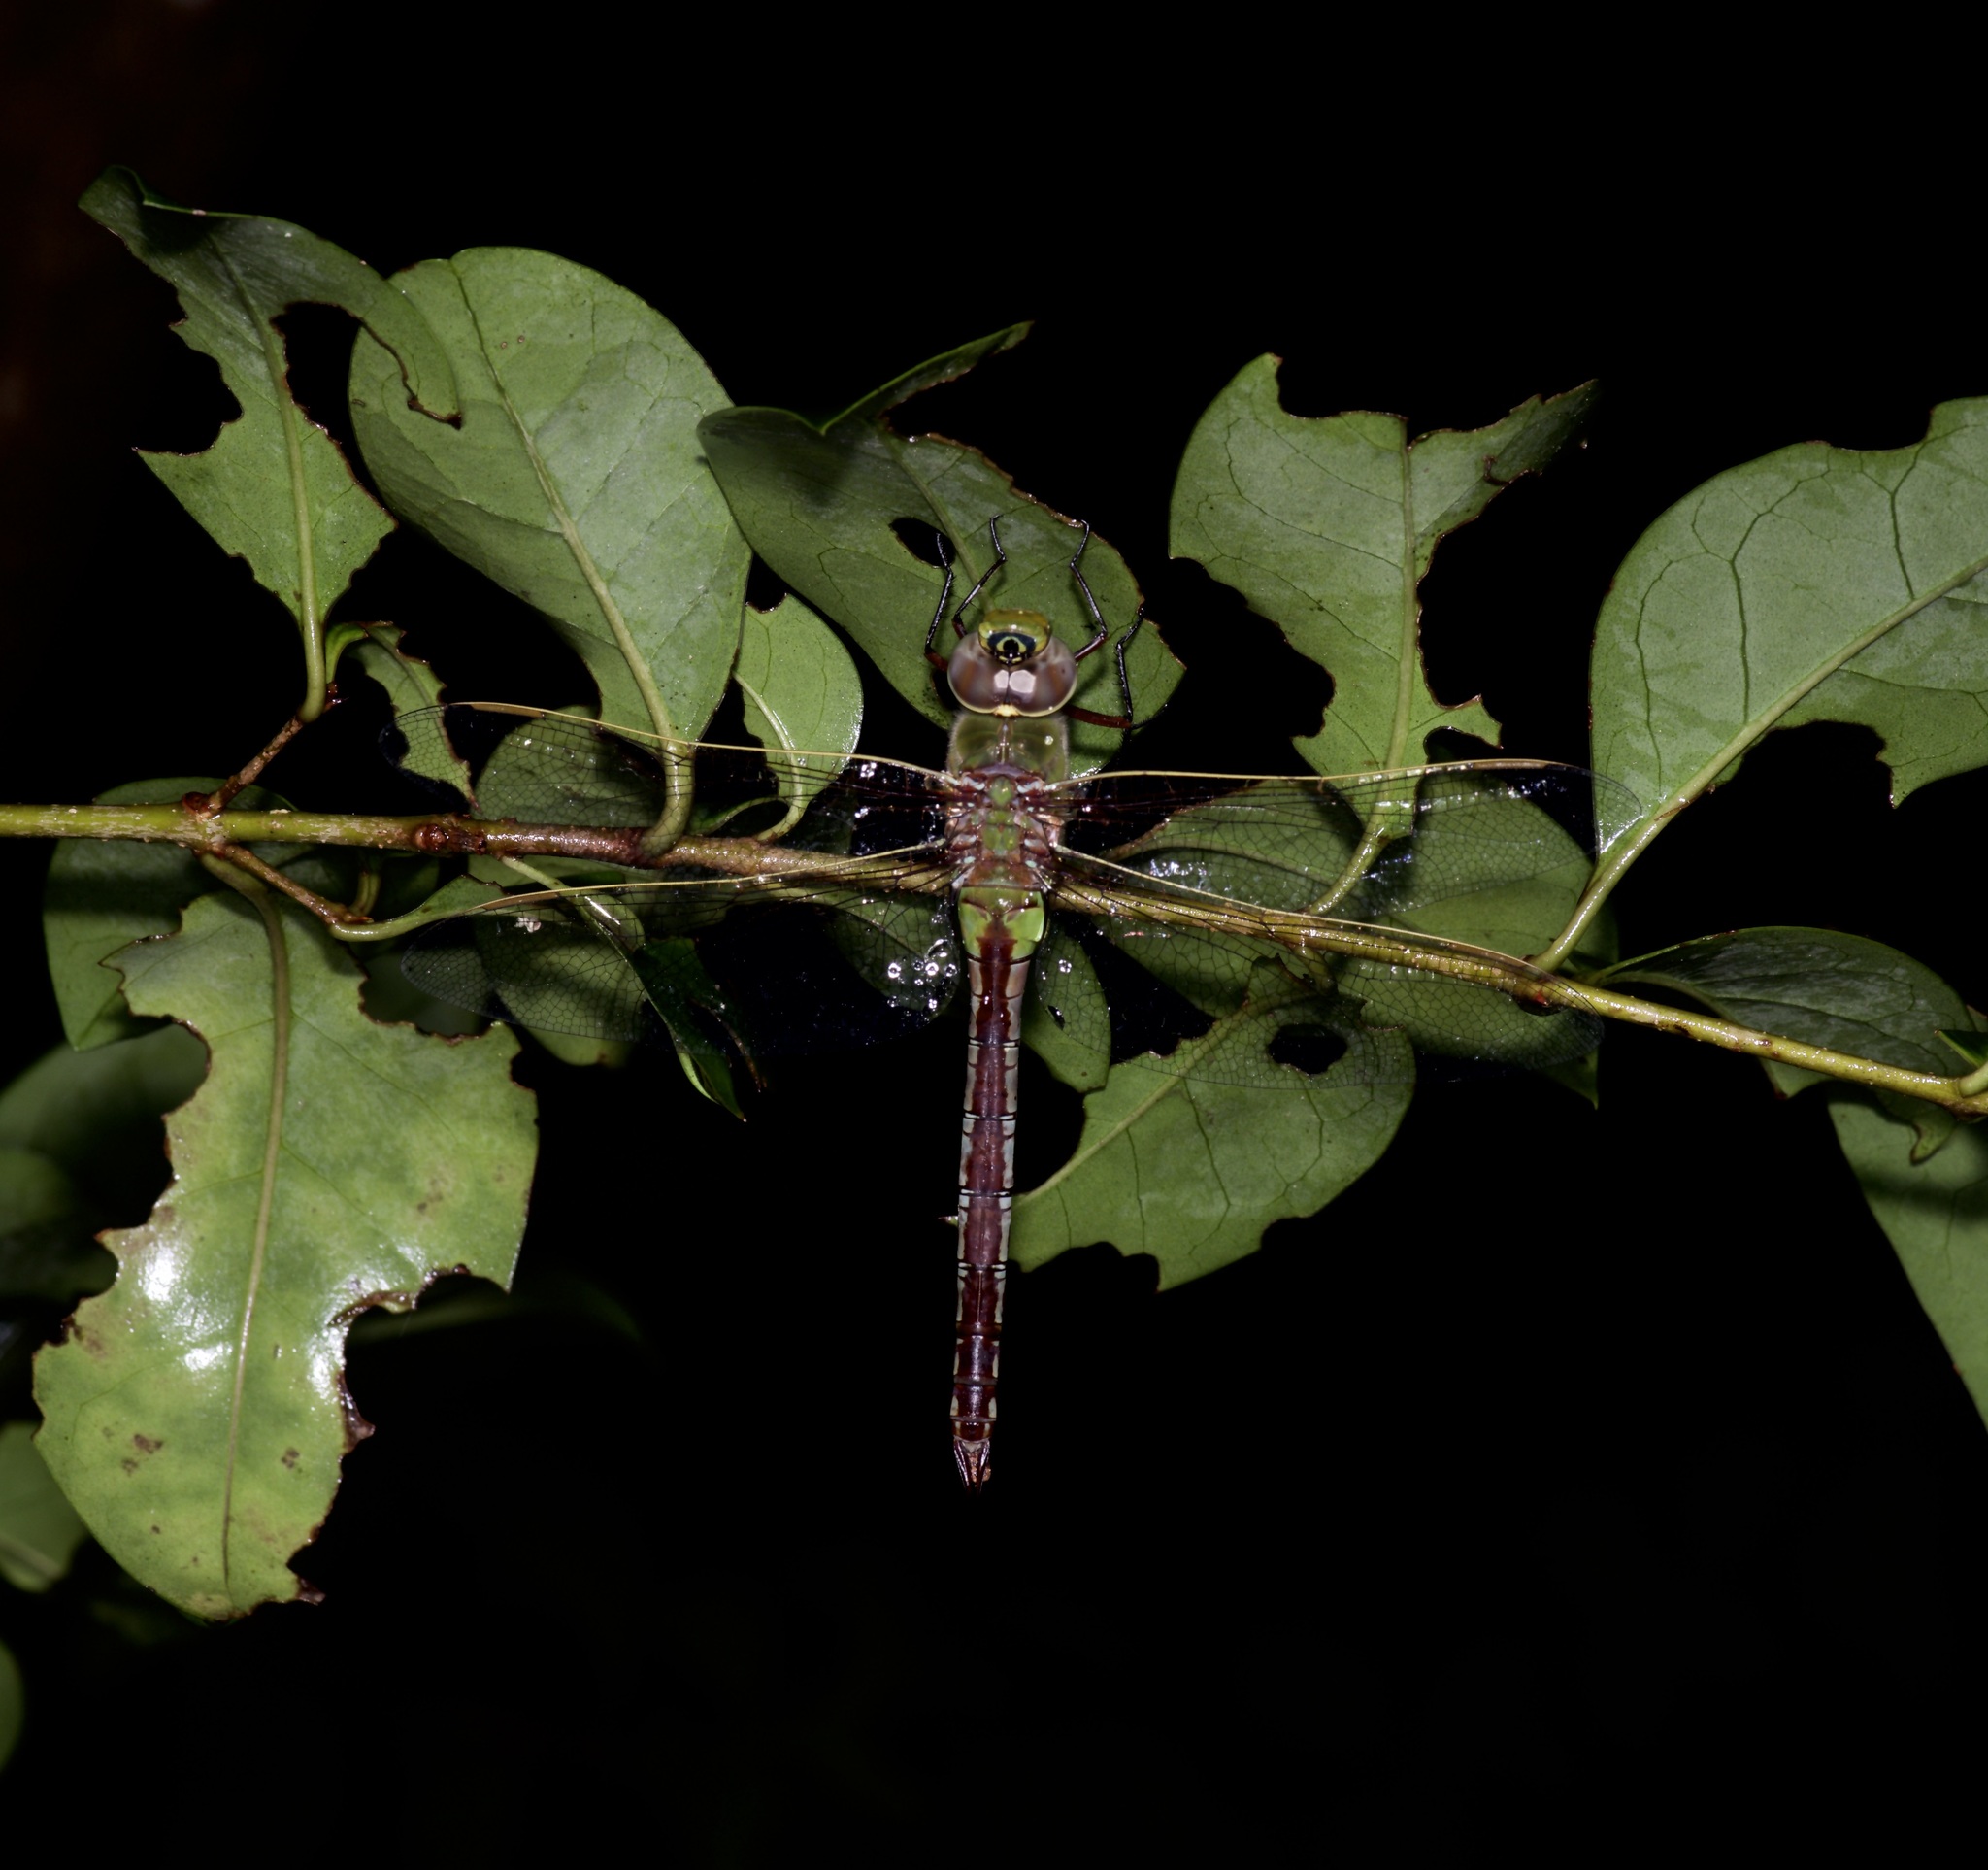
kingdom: Animalia
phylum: Arthropoda
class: Insecta
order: Odonata
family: Aeshnidae
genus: Anax
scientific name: Anax junius
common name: Common green darner
